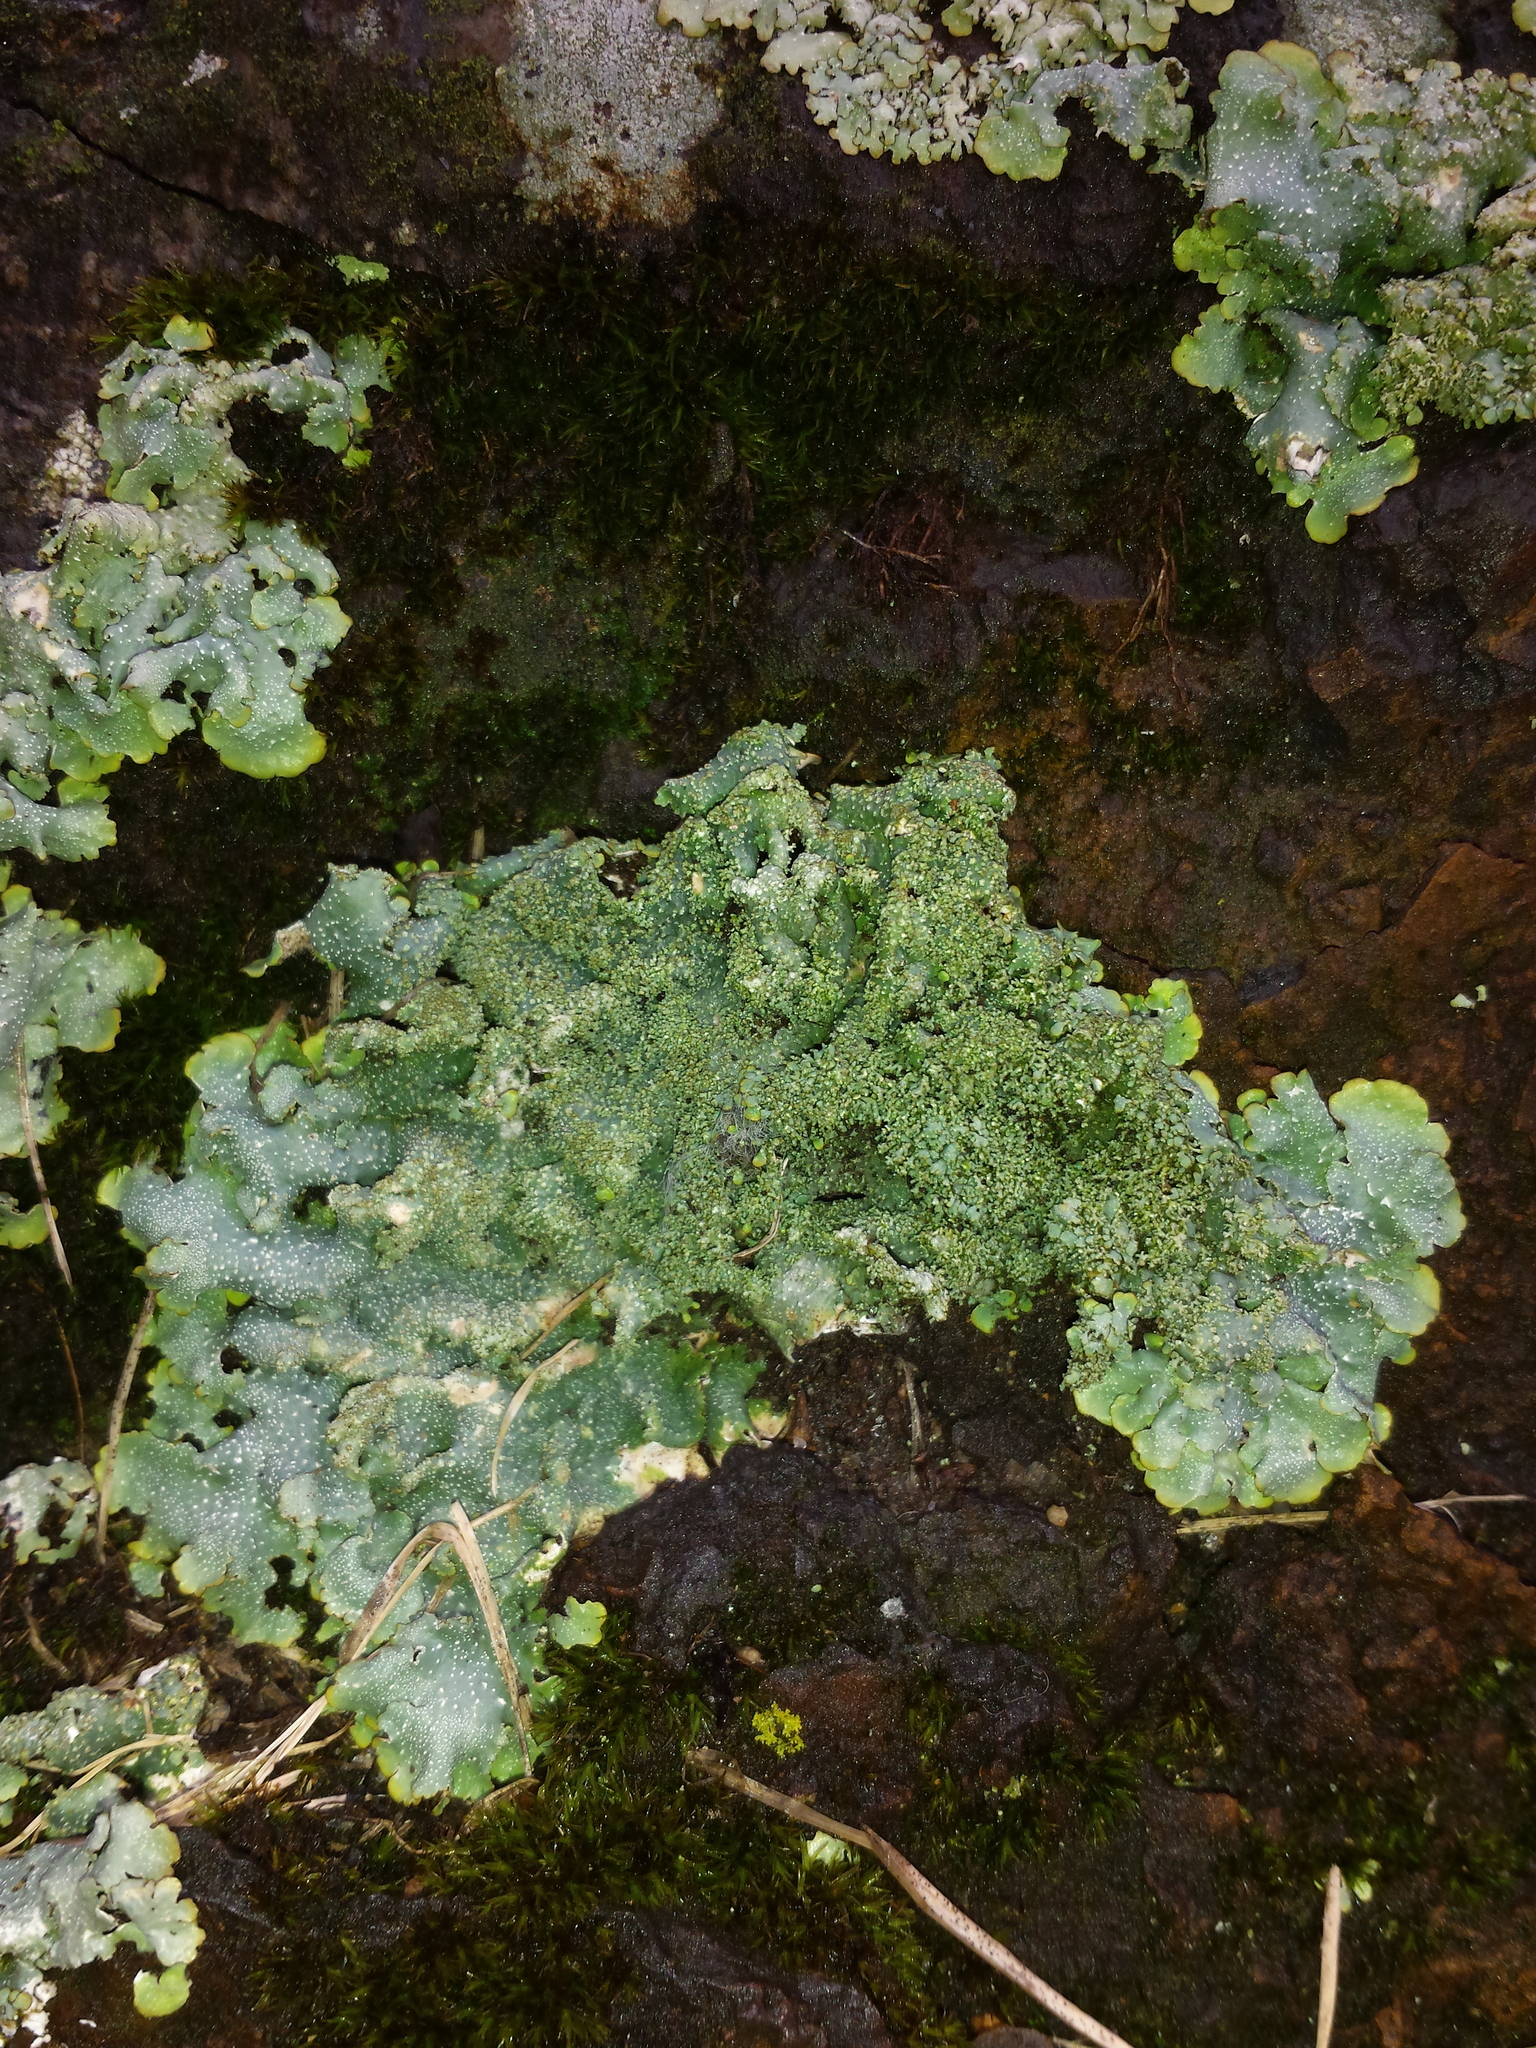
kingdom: Fungi
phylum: Ascomycota
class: Lecanoromycetes
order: Lecanorales
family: Parmeliaceae
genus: Punctelia
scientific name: Punctelia rudecta
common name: Rough speckled shield lichen
